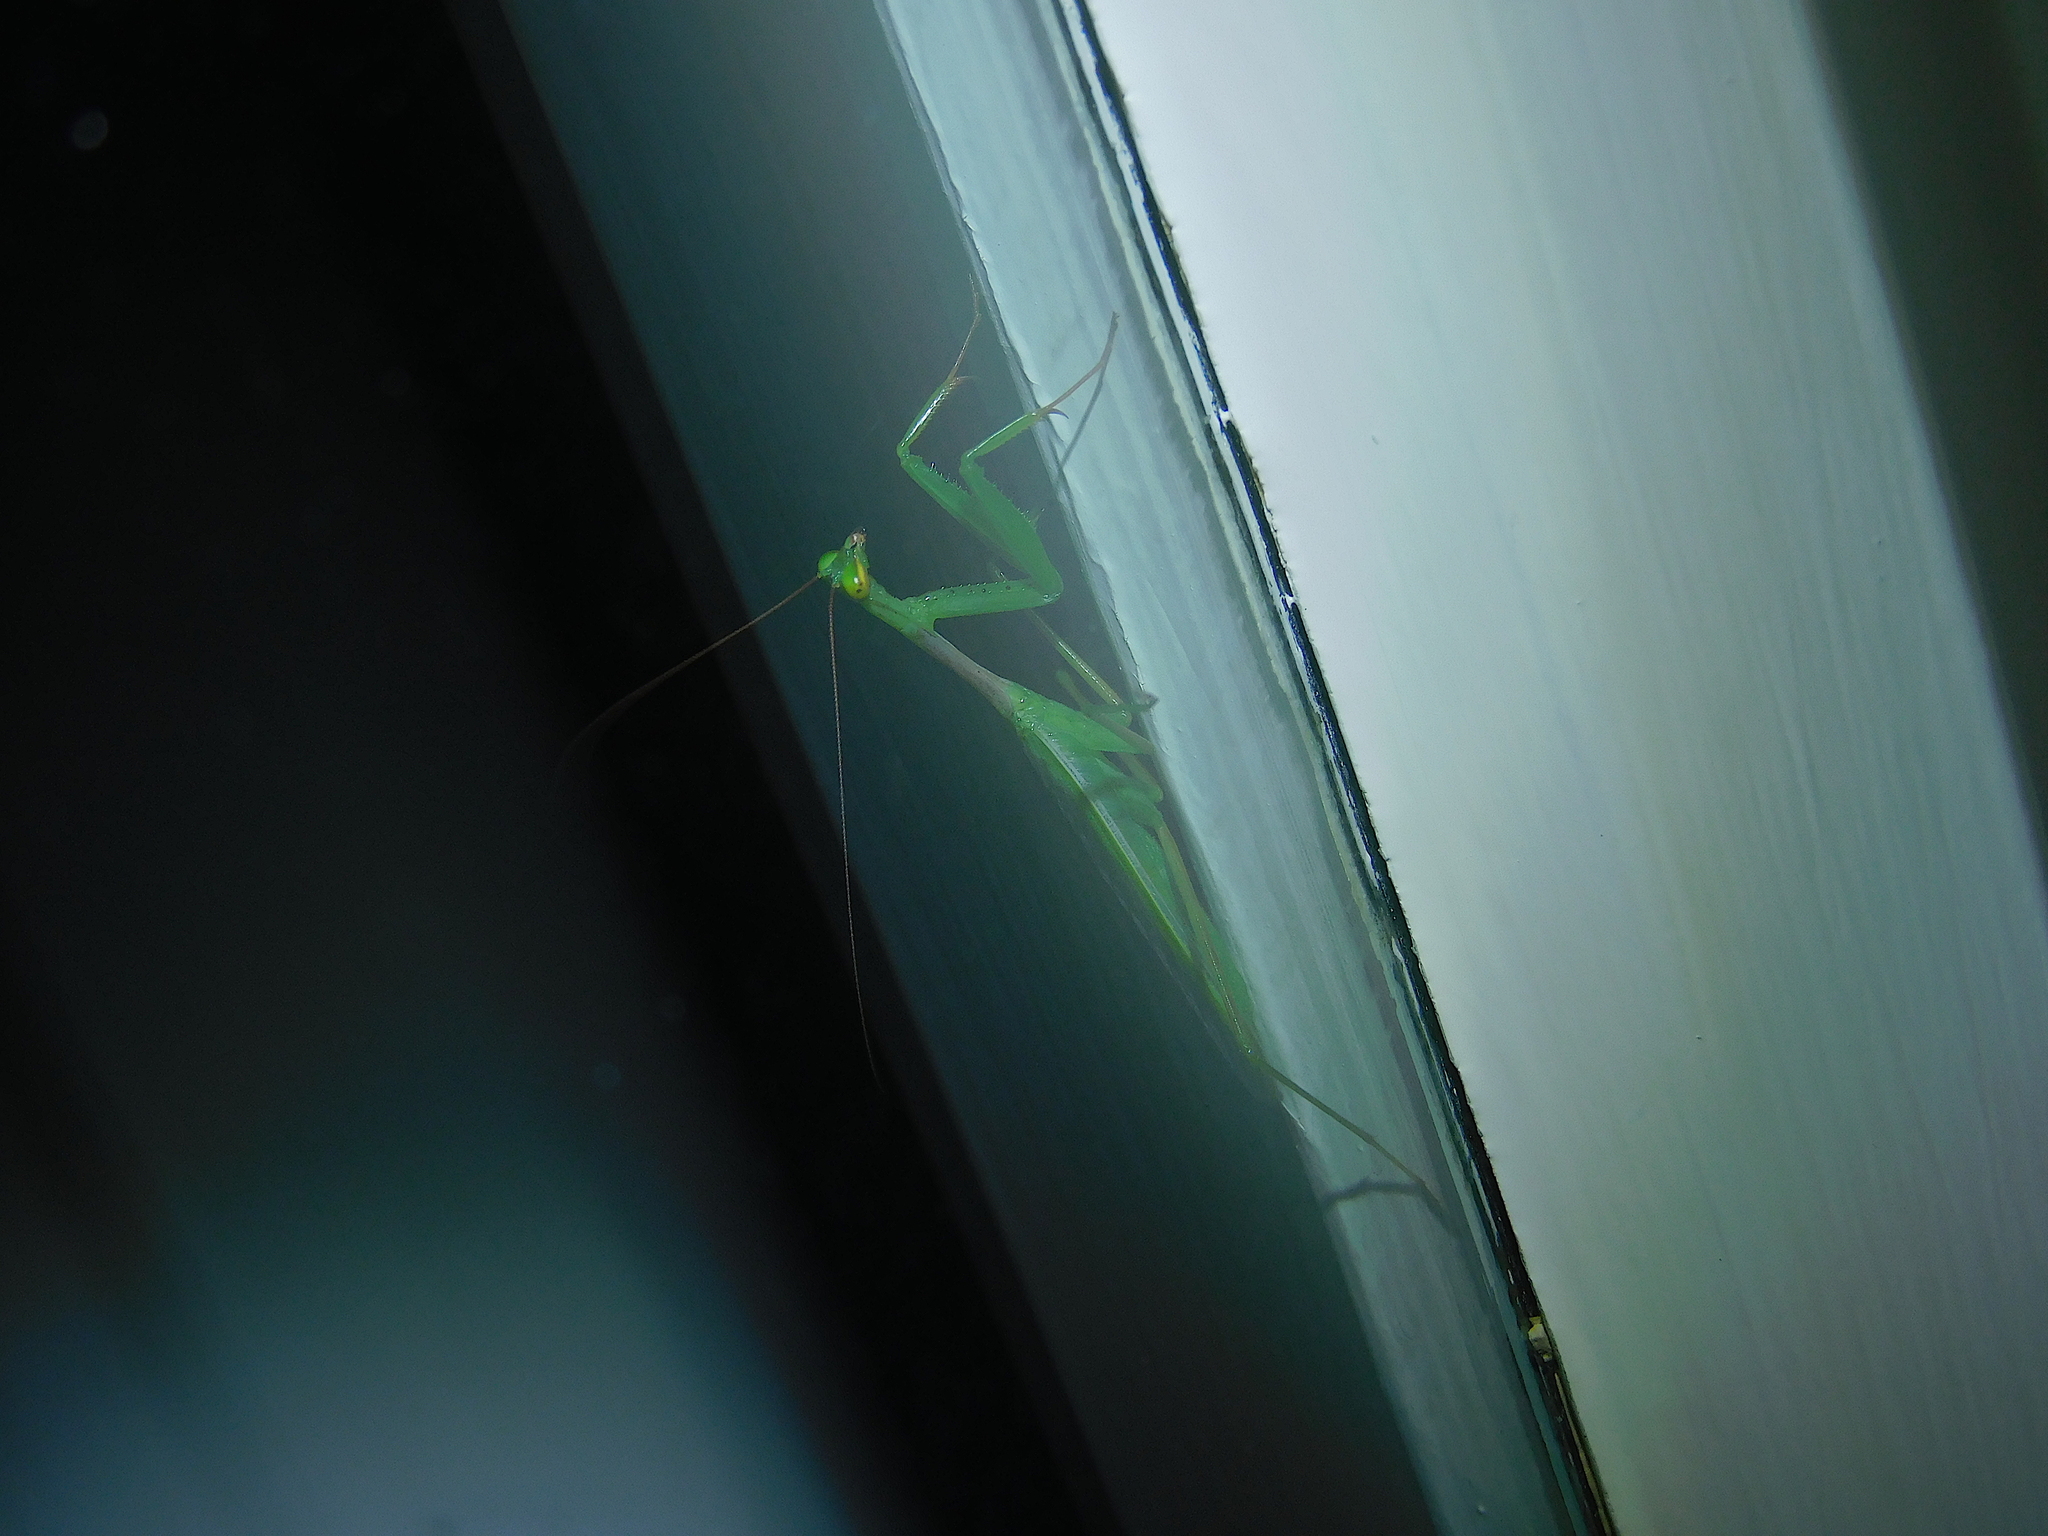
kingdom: Animalia
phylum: Arthropoda
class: Insecta
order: Mantodea
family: Miomantidae
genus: Miomantis
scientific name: Miomantis caffra
